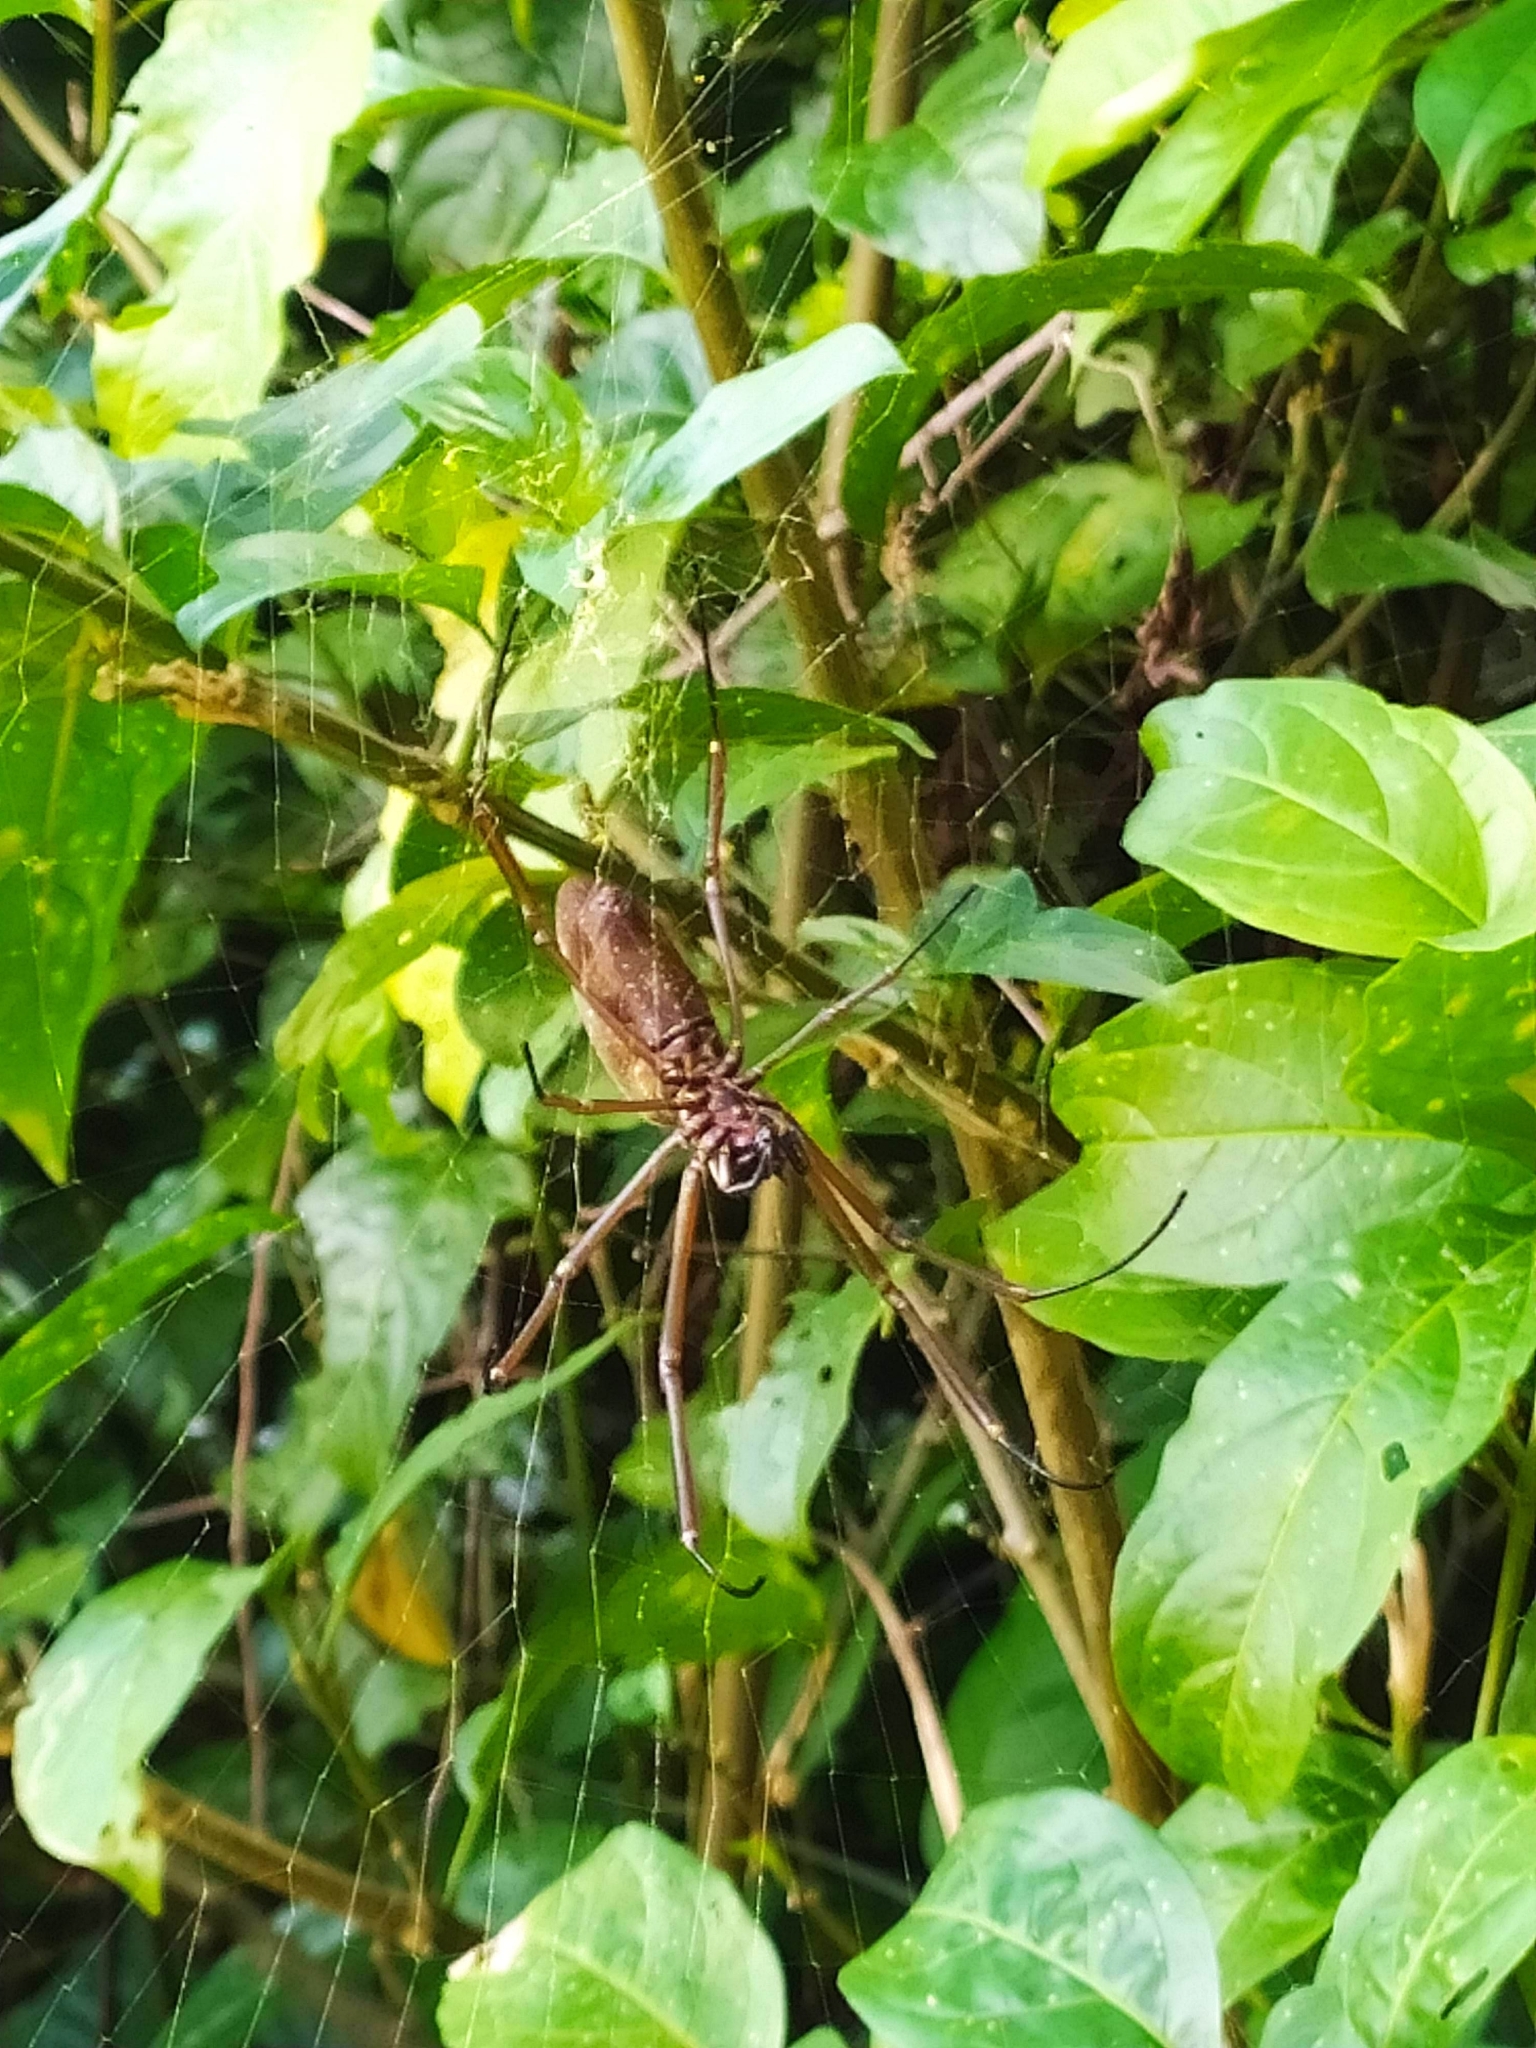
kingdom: Animalia
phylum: Arthropoda
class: Arachnida
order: Araneae
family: Araneidae
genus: Nephila
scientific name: Nephila cornuta
